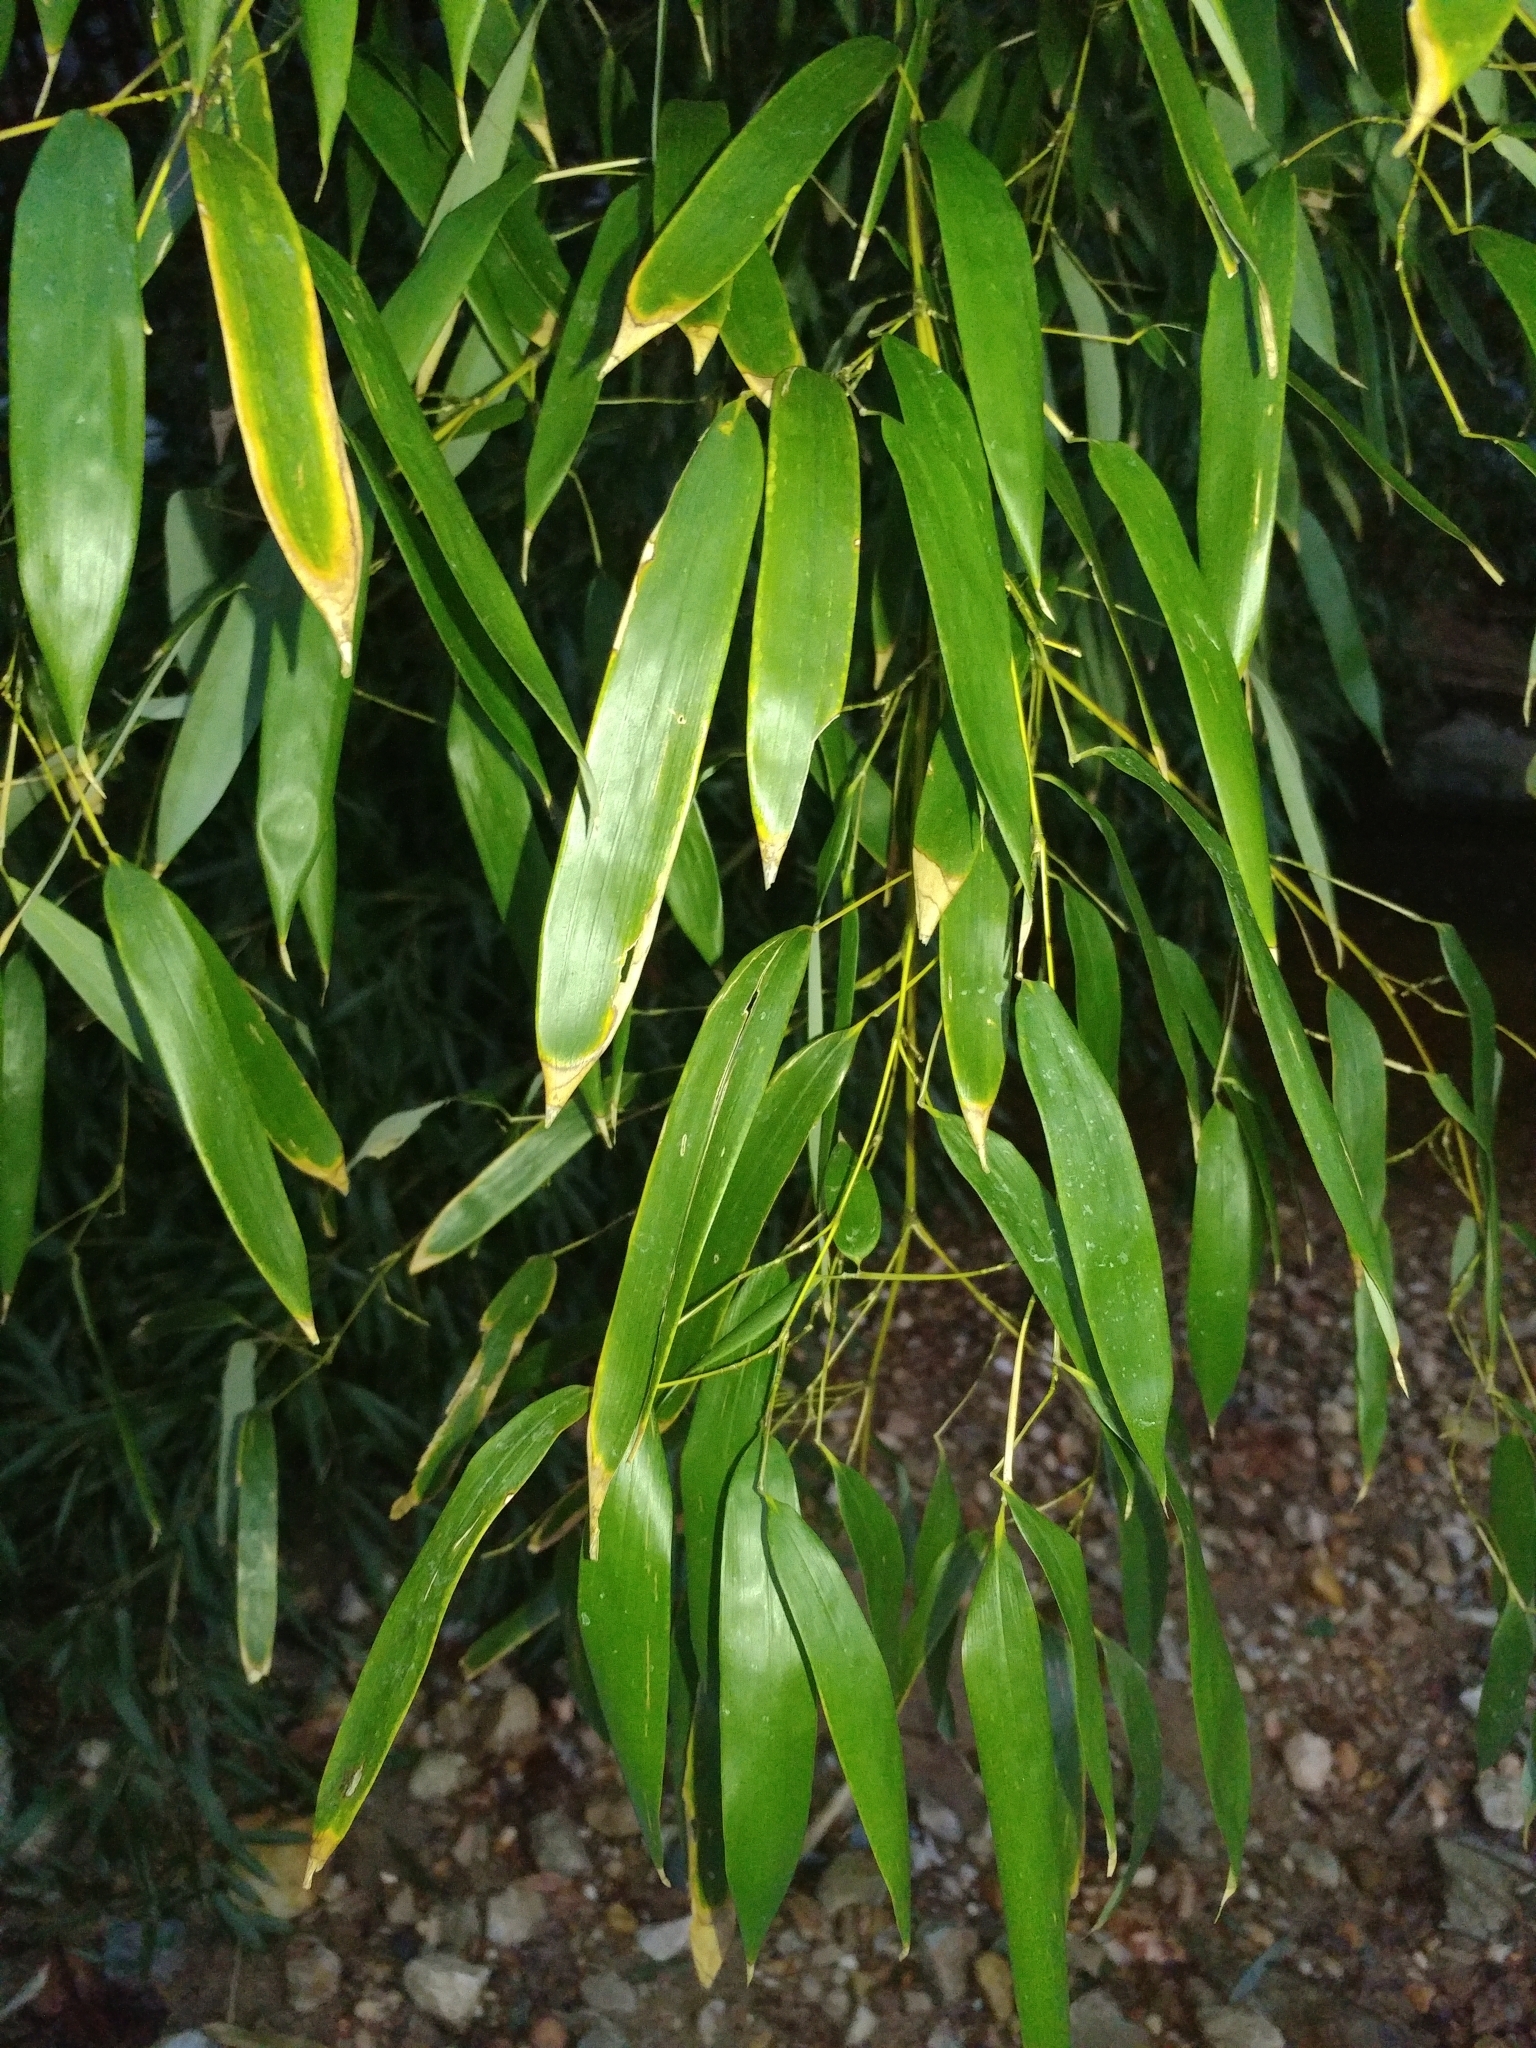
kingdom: Plantae
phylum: Tracheophyta
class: Liliopsida
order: Poales
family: Poaceae
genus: Phyllostachys
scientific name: Phyllostachys aureosulcata
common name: Yellow groove bamboo
